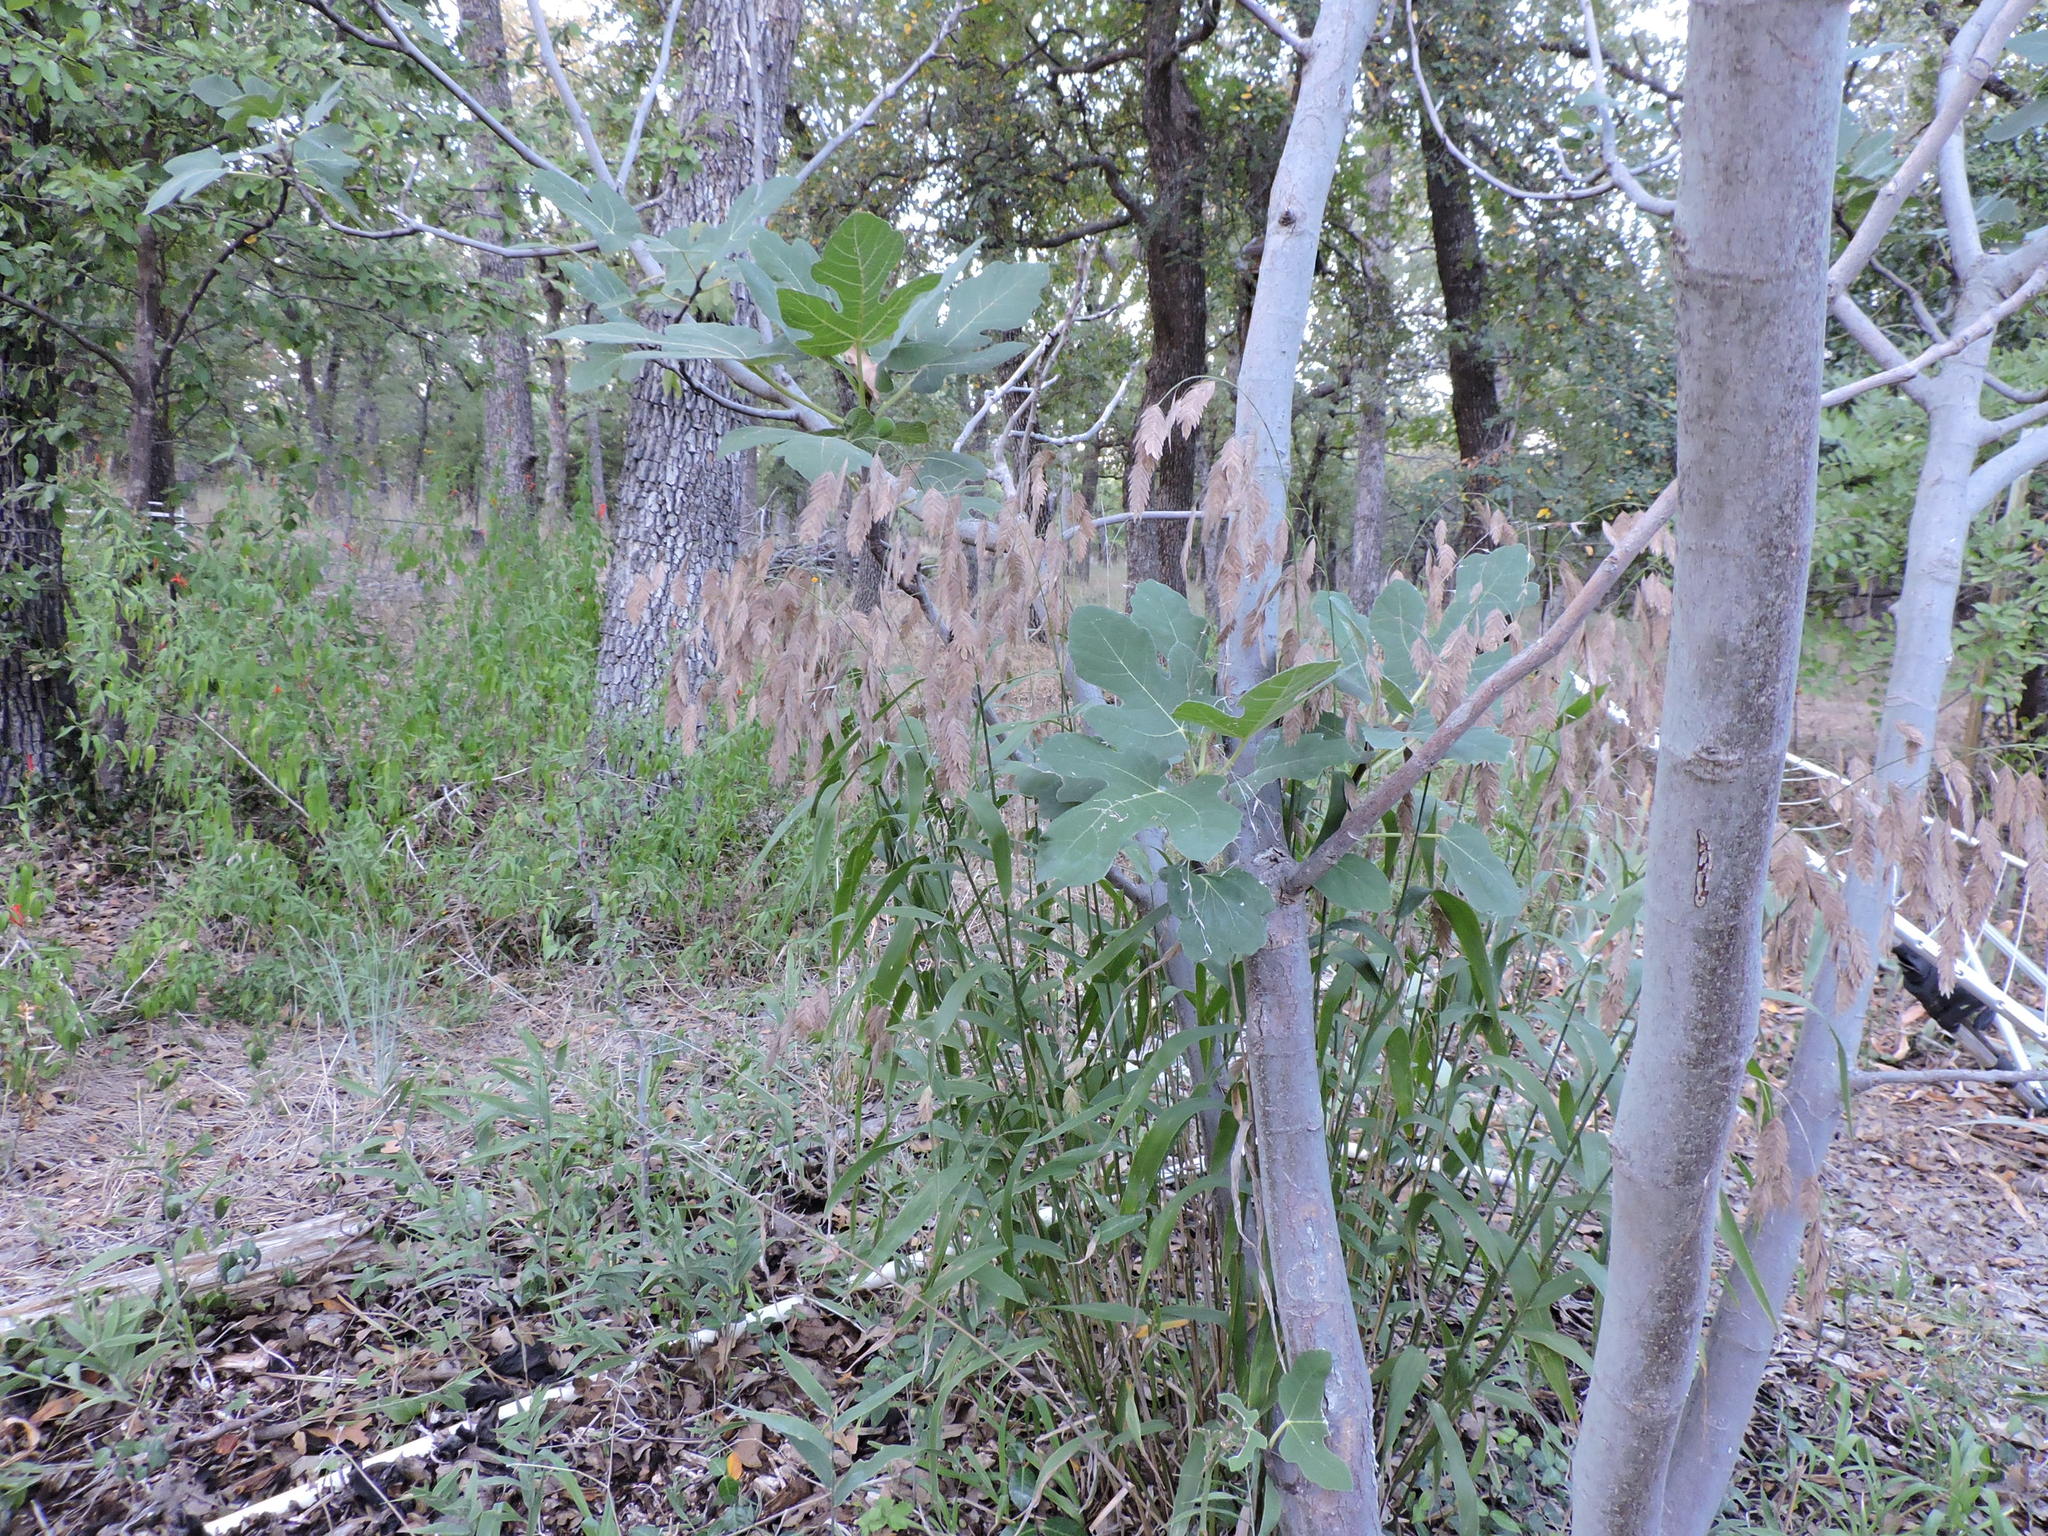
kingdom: Plantae
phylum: Tracheophyta
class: Liliopsida
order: Poales
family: Poaceae
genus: Chasmanthium
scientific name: Chasmanthium latifolium
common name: Broad-leaved chasmanthium
